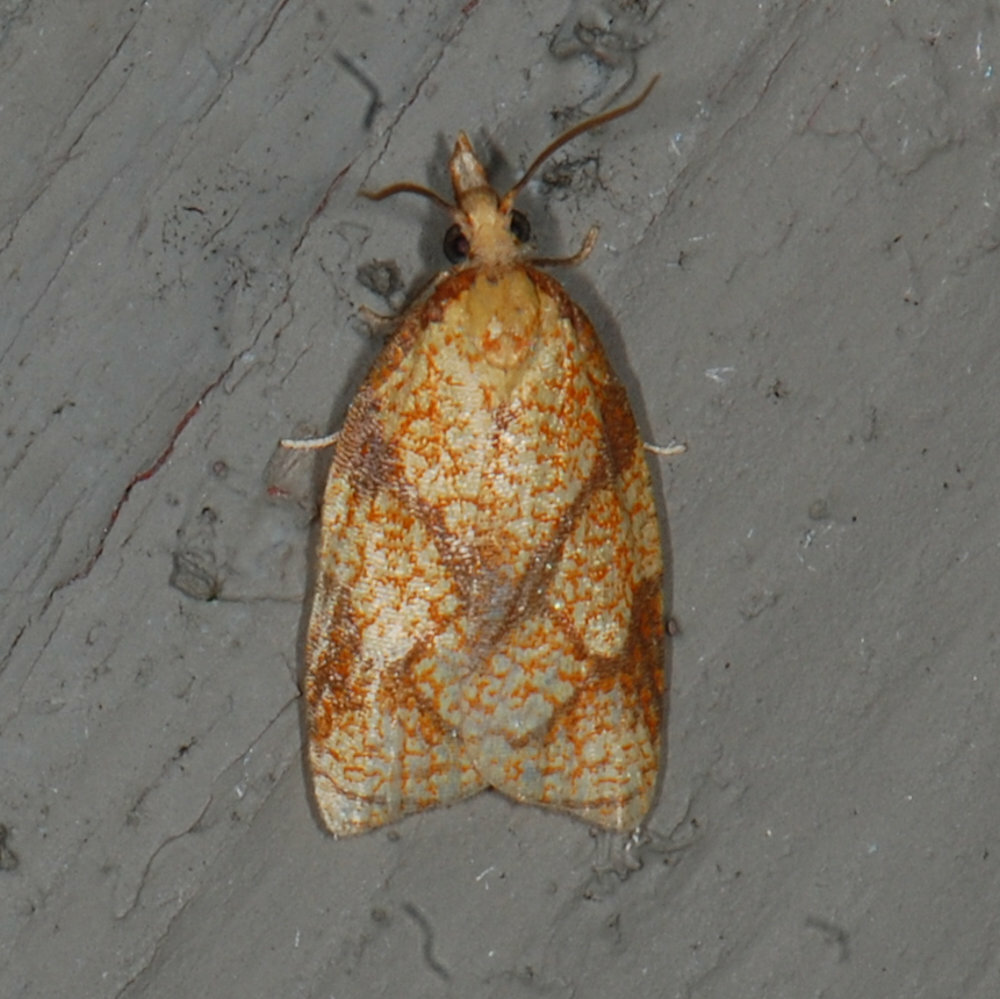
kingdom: Animalia
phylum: Arthropoda
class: Insecta
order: Lepidoptera
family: Tortricidae
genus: Cenopis
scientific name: Cenopis reticulatana
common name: Reticulated fruitworm moth
